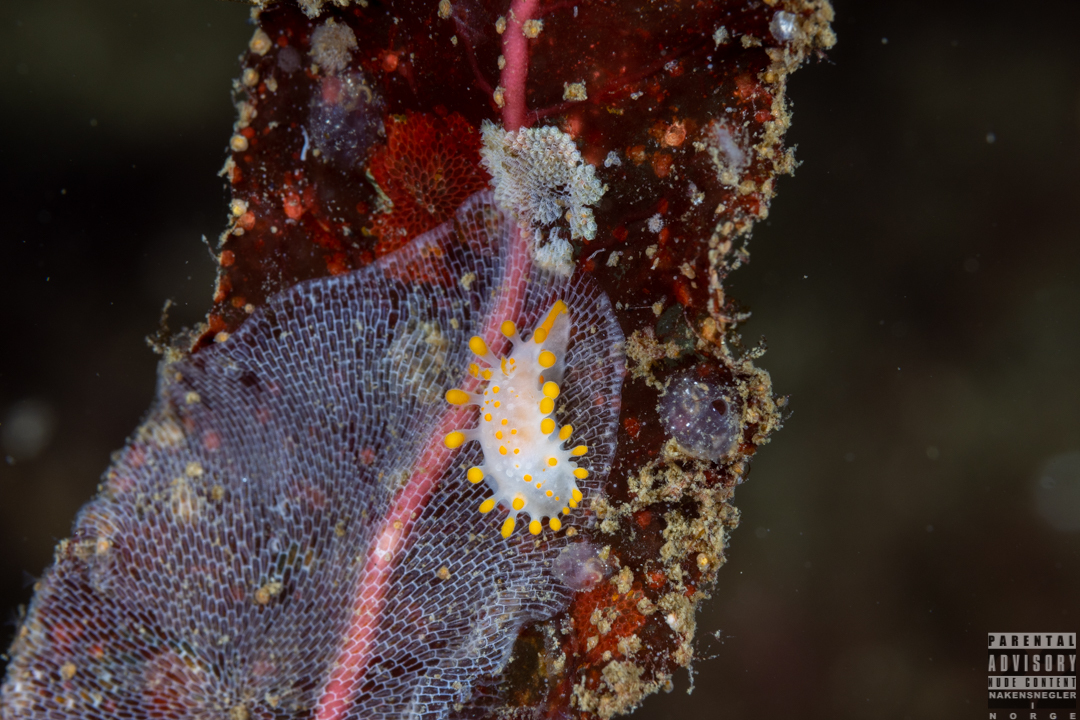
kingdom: Animalia
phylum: Mollusca
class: Gastropoda
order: Nudibranchia
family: Polyceridae
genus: Limacia
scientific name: Limacia clavigera
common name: Orange-clubbed sea slug
